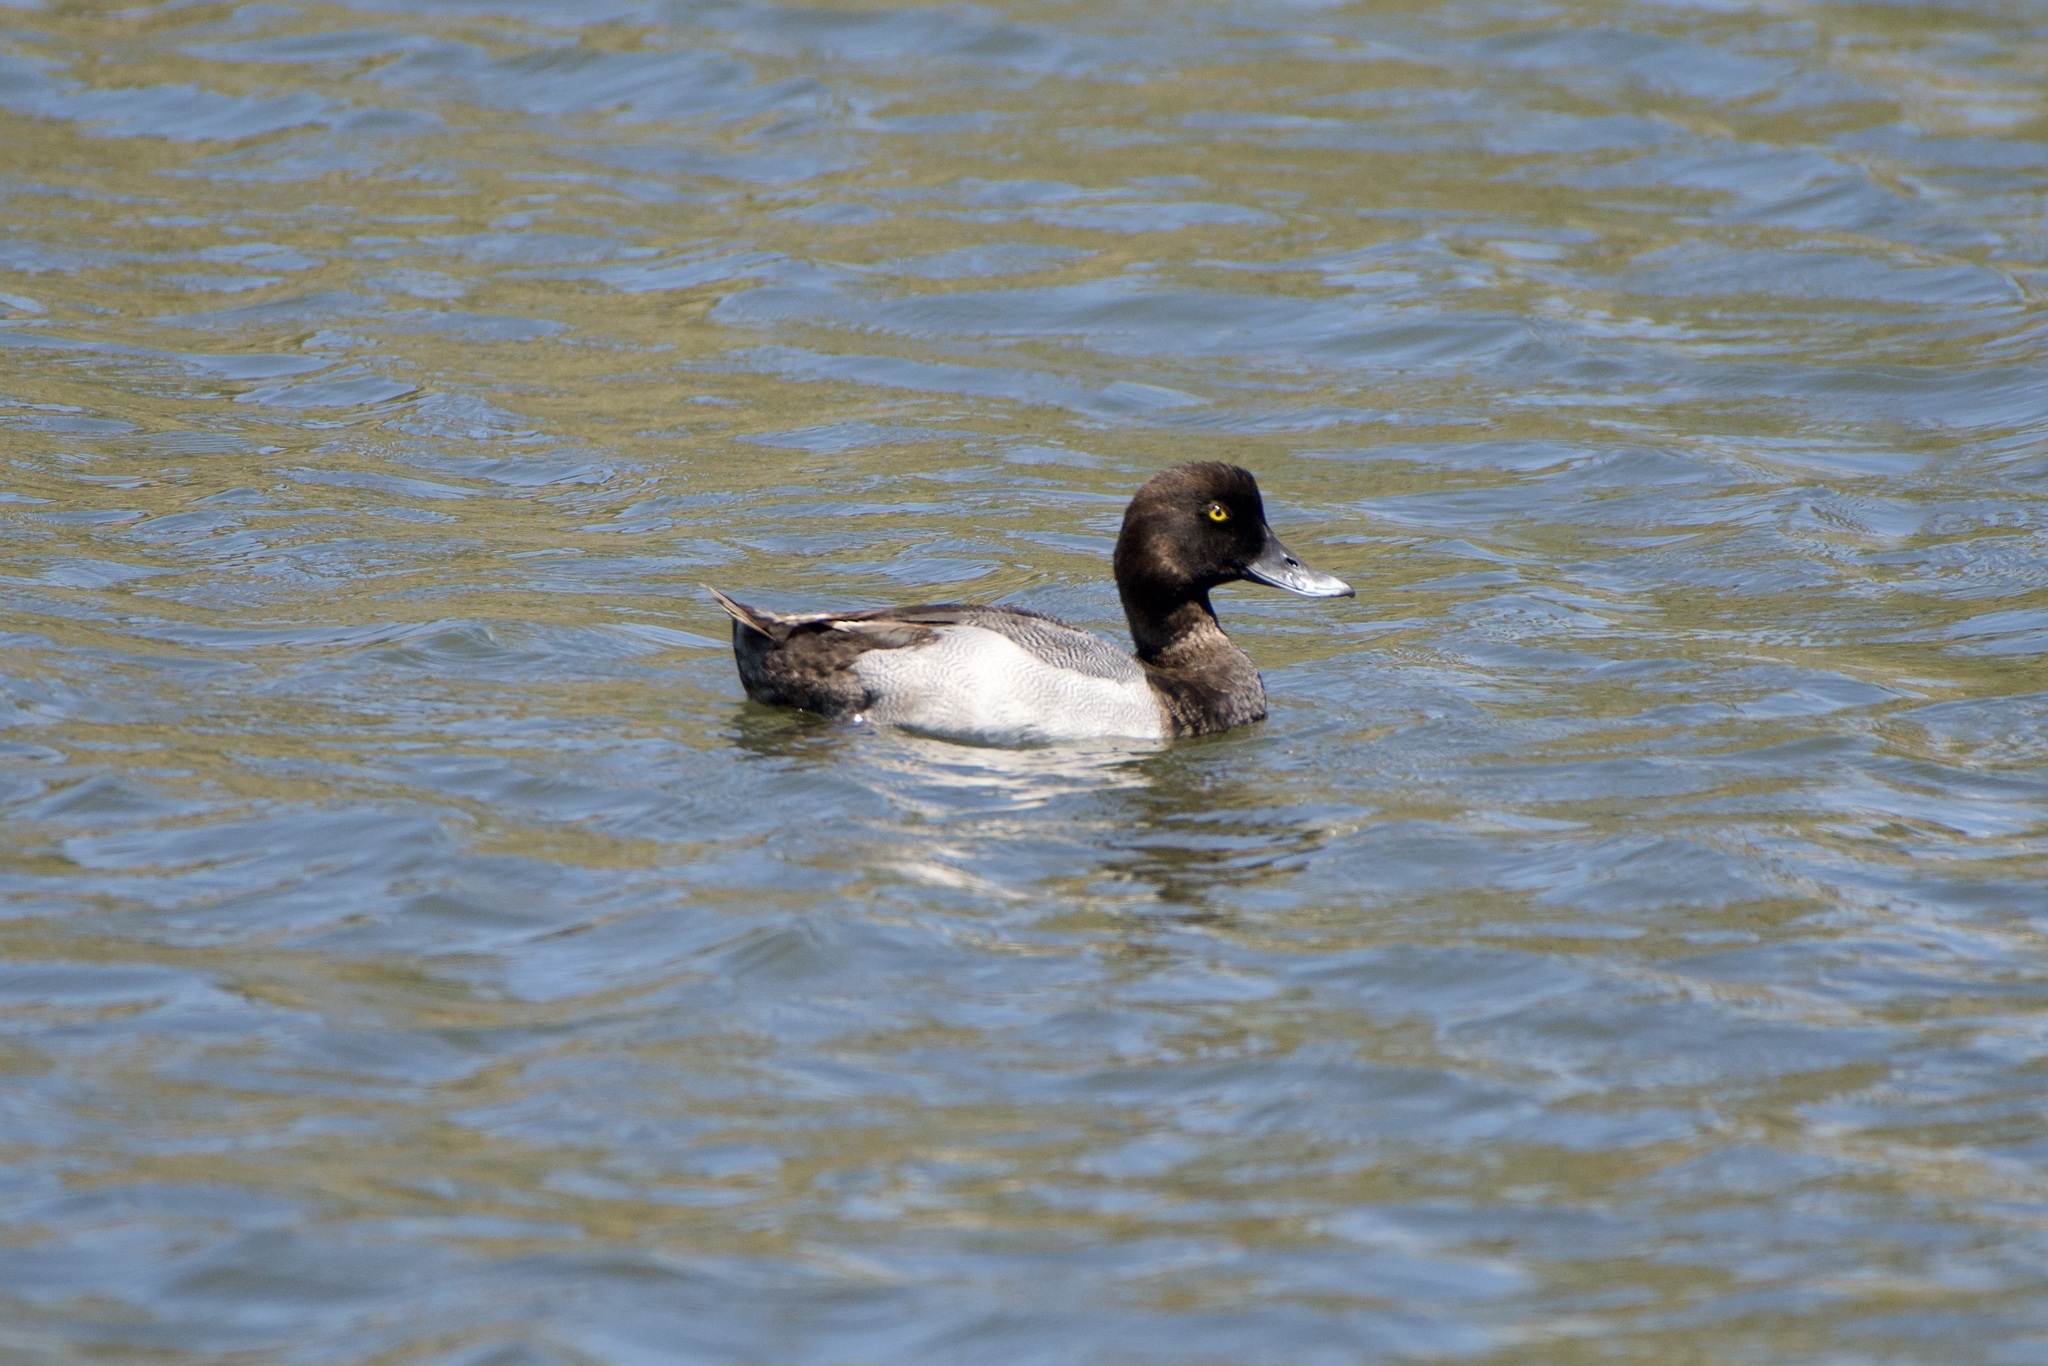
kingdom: Animalia
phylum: Chordata
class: Aves
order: Anseriformes
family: Anatidae
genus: Aythya
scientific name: Aythya marila
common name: Greater scaup
